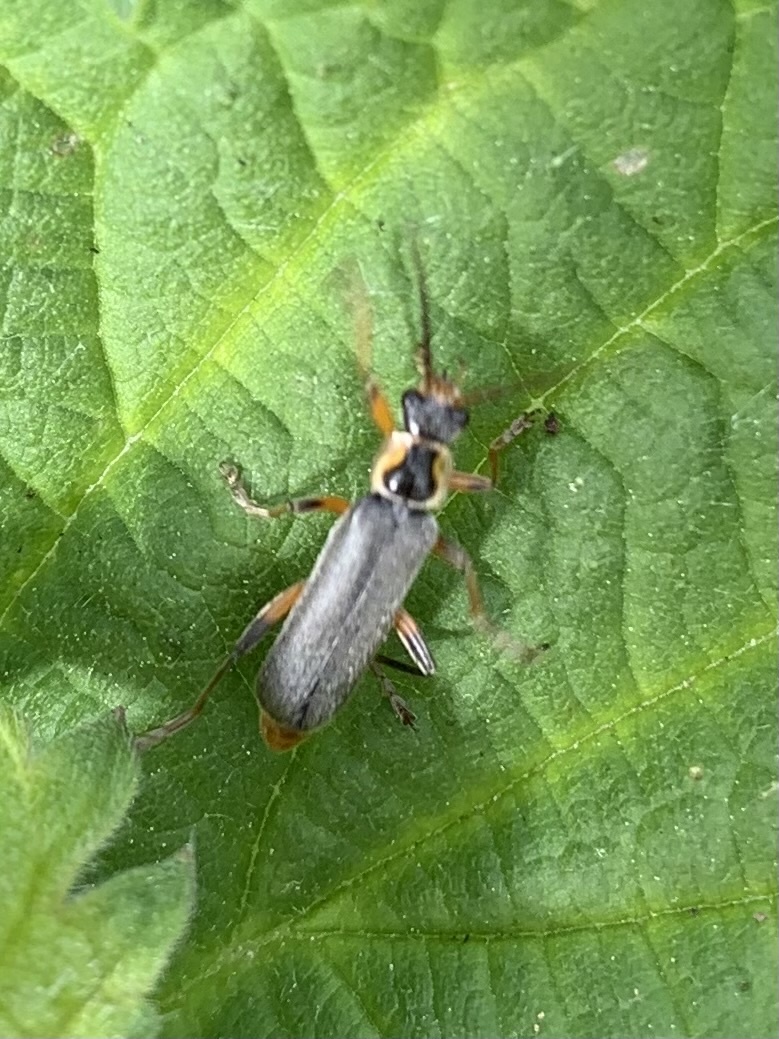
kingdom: Animalia
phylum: Arthropoda
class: Insecta
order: Coleoptera
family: Cantharidae
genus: Cantharis
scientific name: Cantharis nigricans
